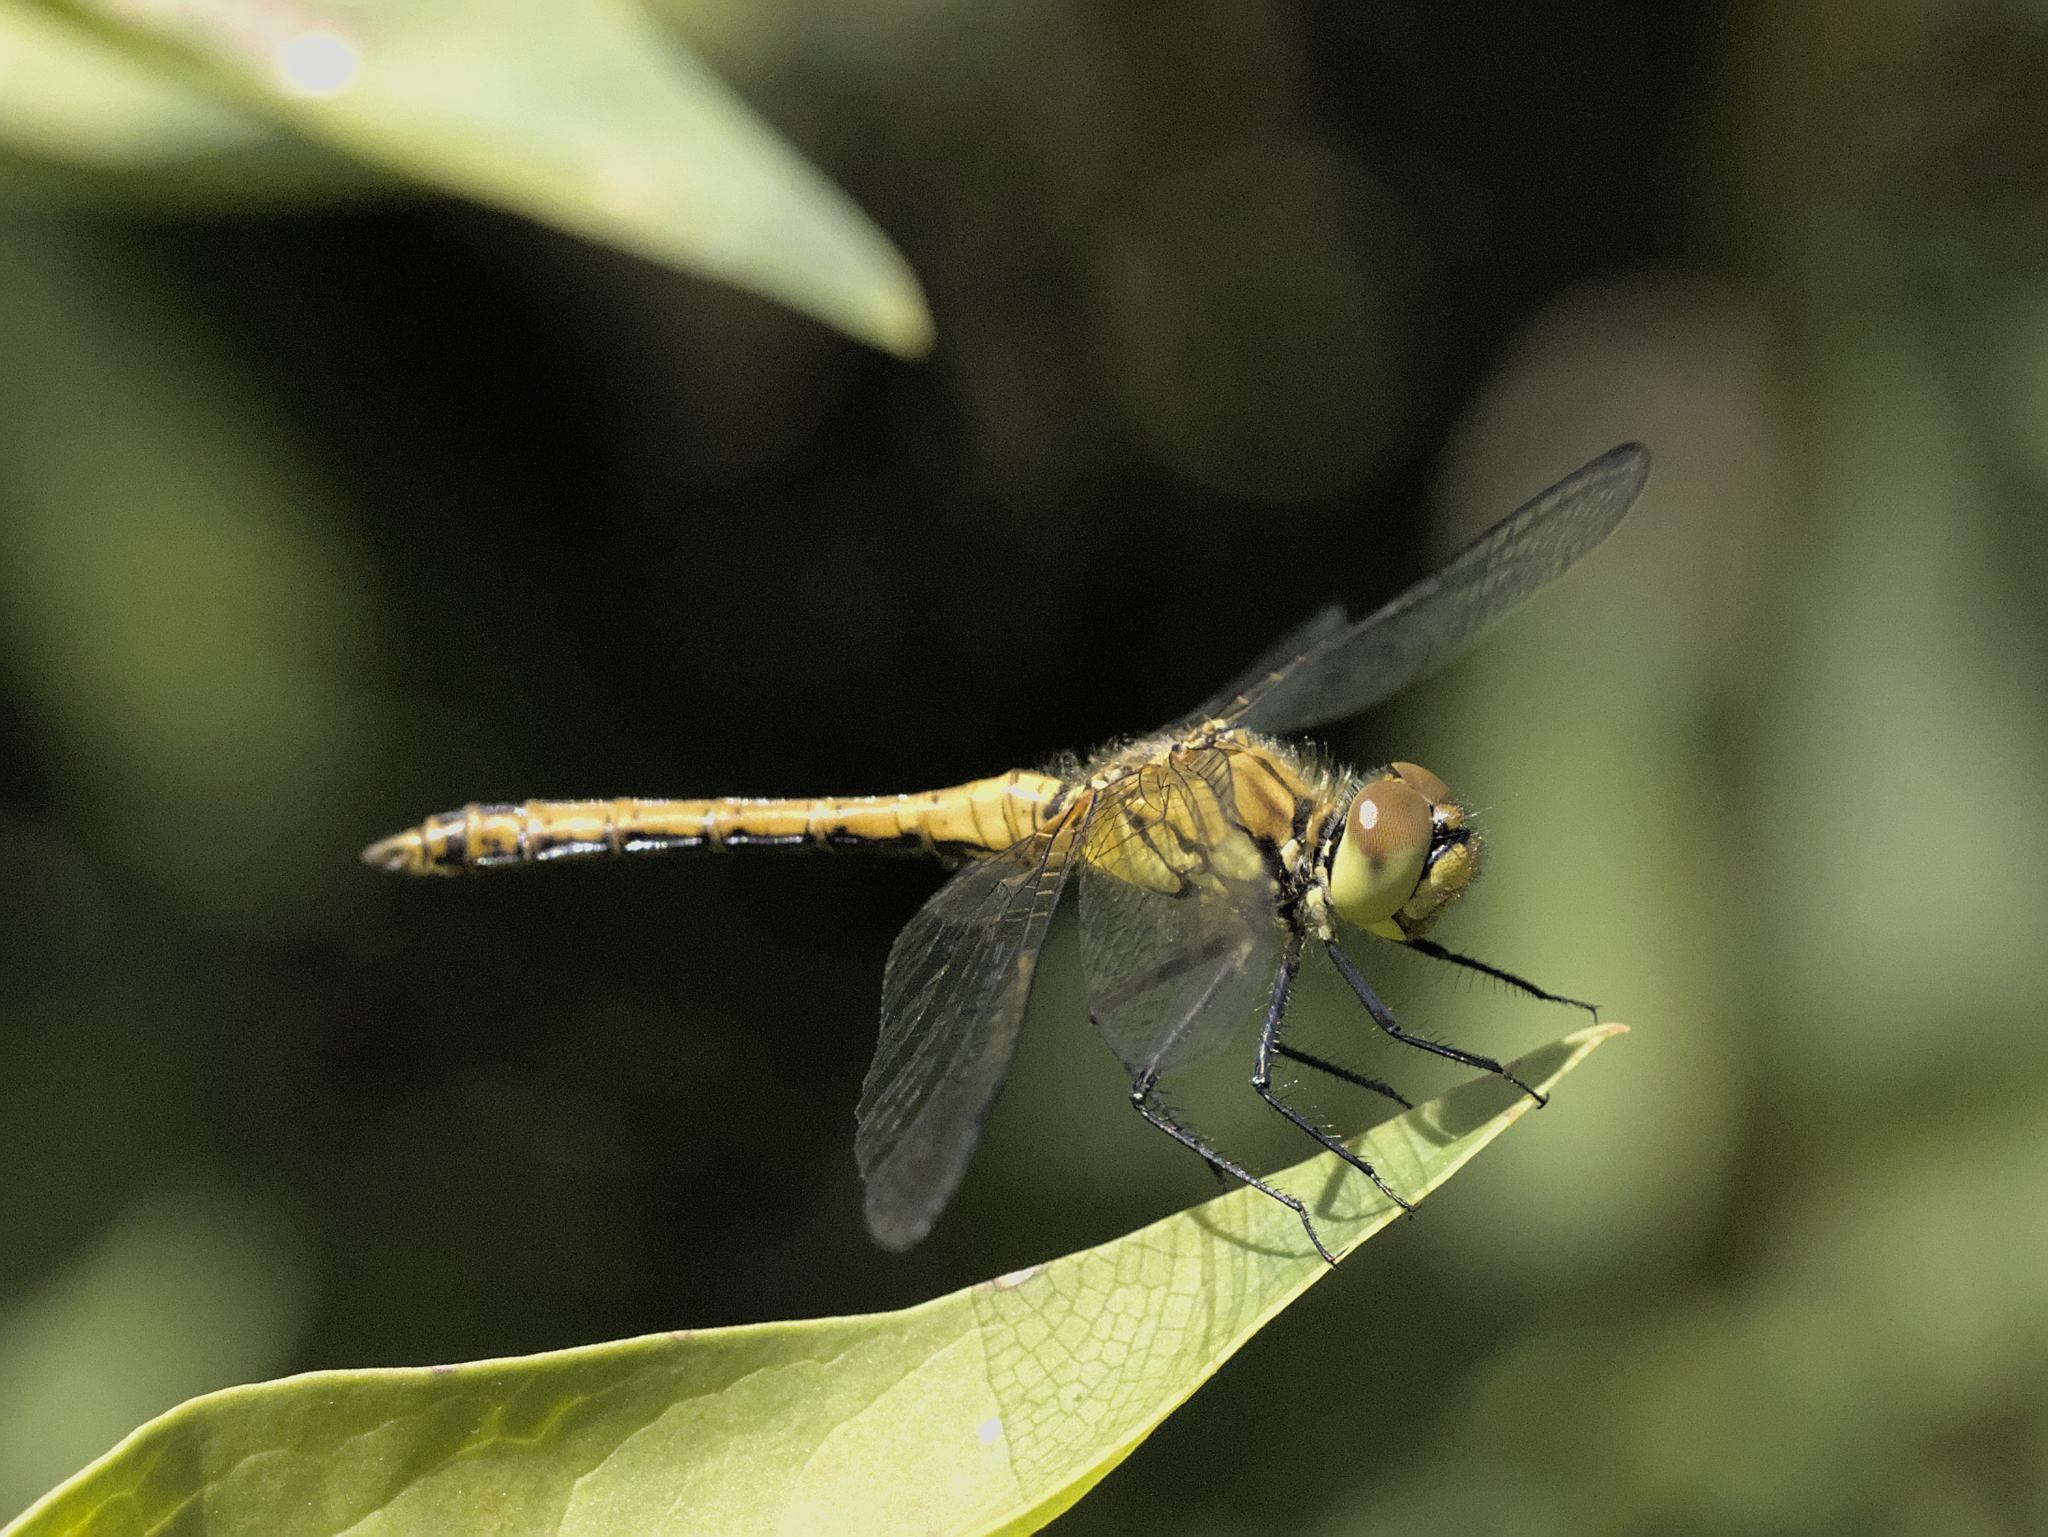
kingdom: Animalia
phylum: Arthropoda
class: Insecta
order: Odonata
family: Libellulidae
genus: Sympetrum
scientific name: Sympetrum sanguineum
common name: Ruddy darter
